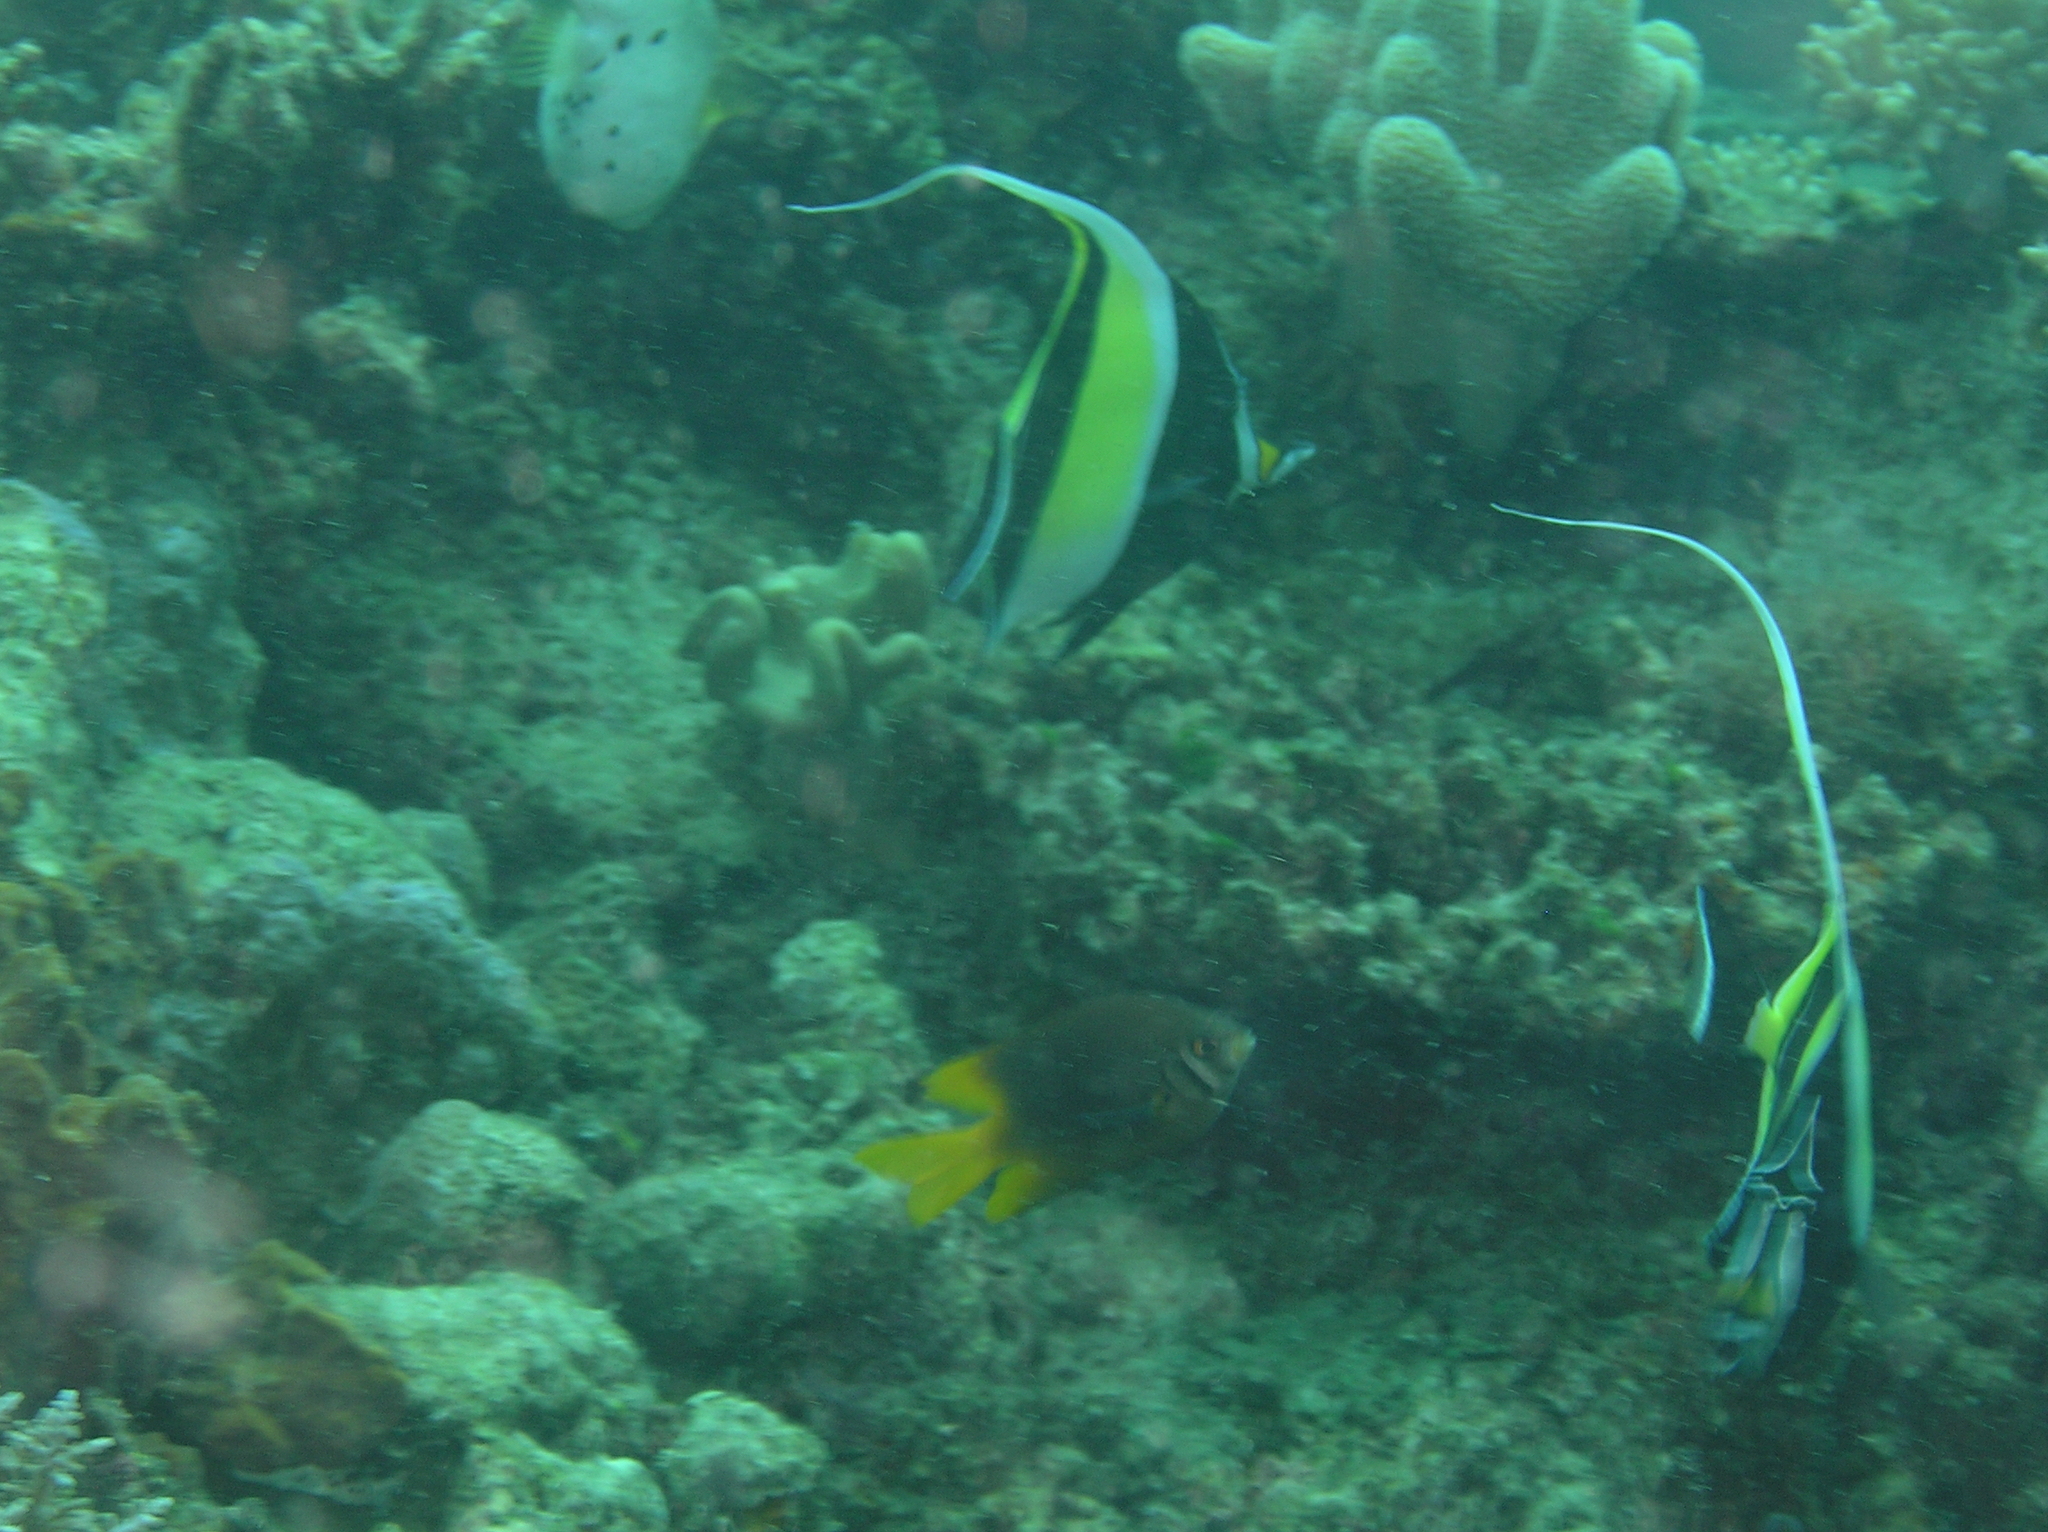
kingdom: Animalia
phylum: Chordata
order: Perciformes
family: Pomacentridae
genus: Neoglyphidodon
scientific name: Neoglyphidodon nigroris
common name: Behn's damsel
